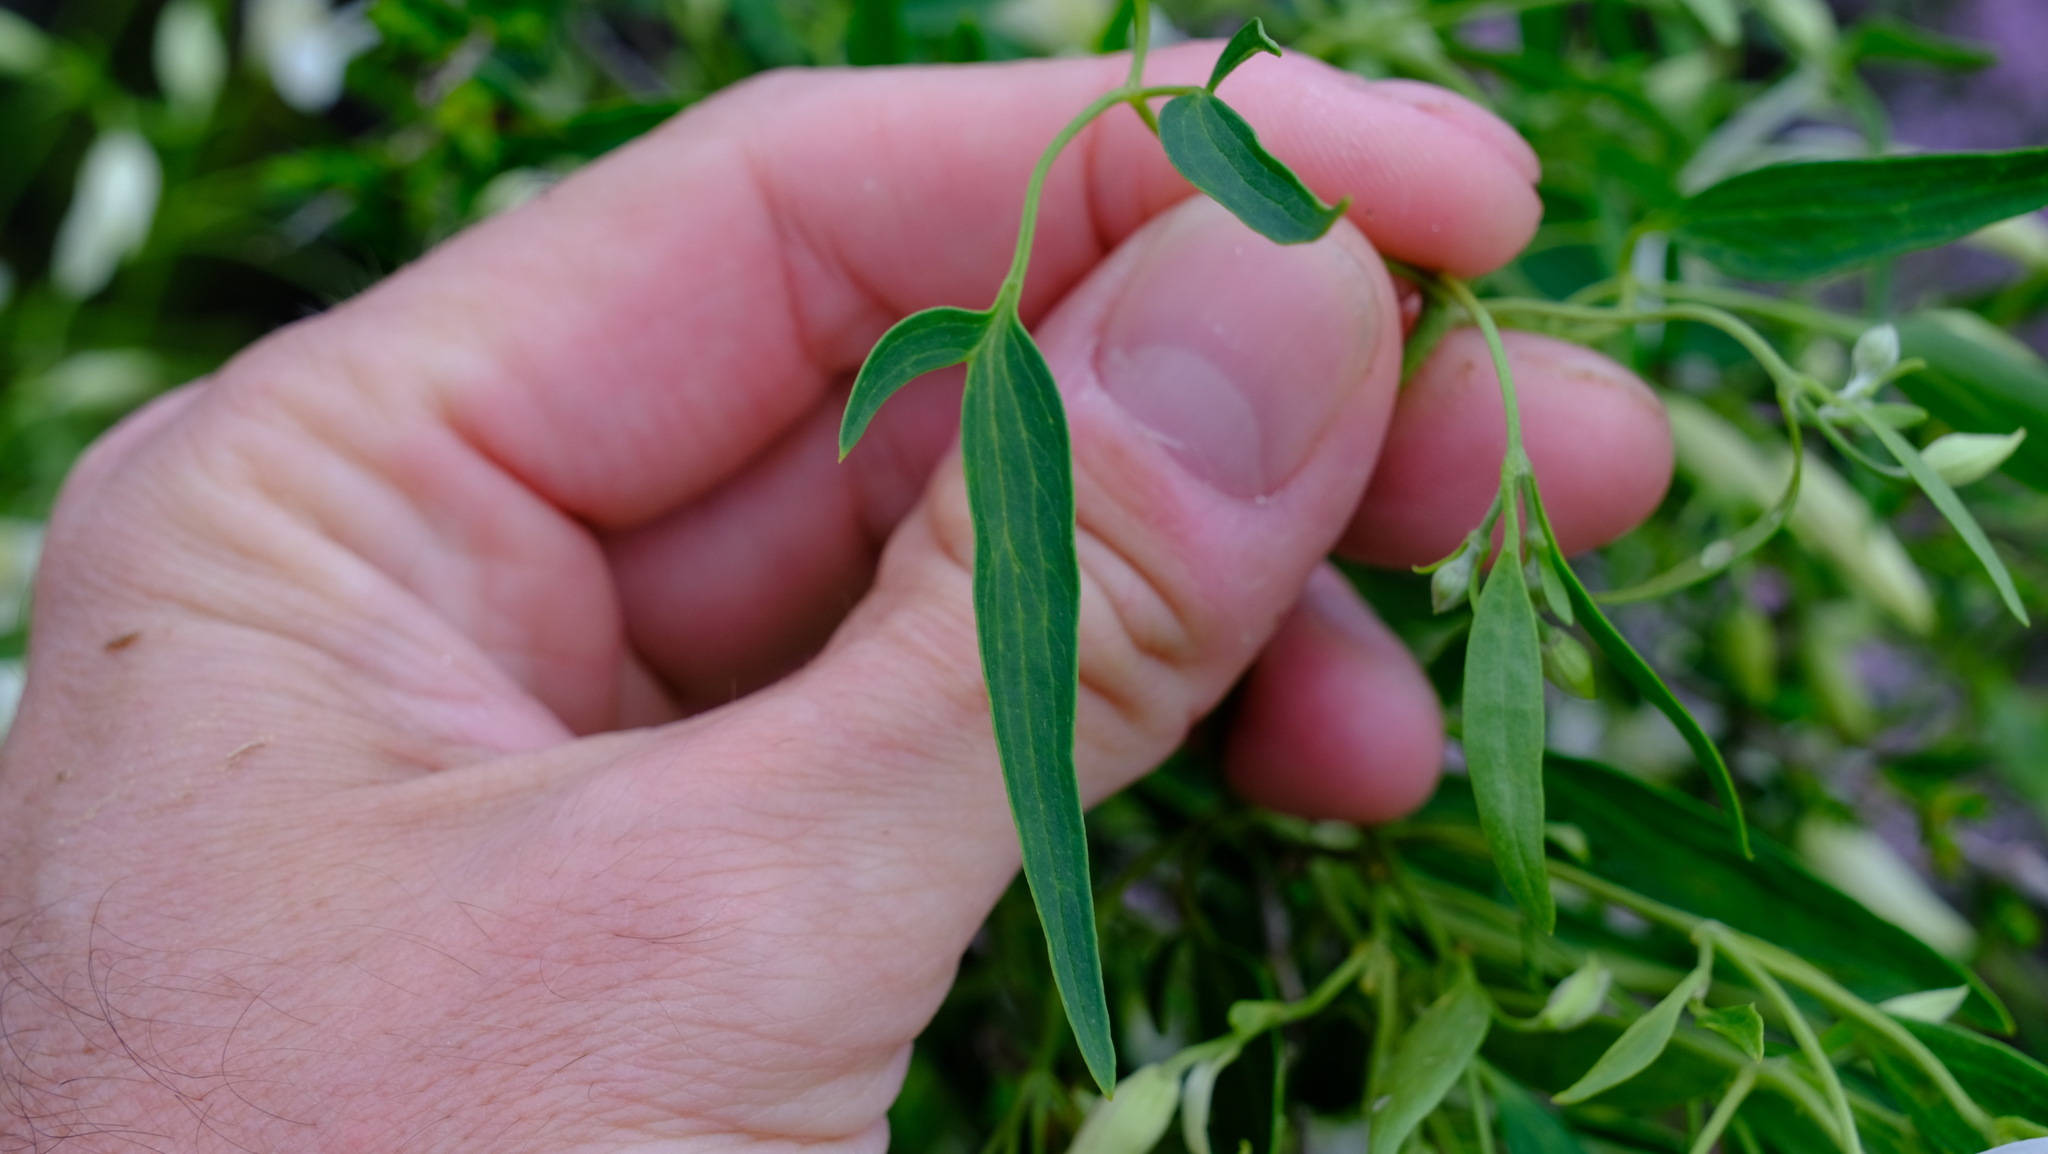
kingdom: Plantae
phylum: Tracheophyta
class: Magnoliopsida
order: Ranunculales
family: Ranunculaceae
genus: Clematis
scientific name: Clematis linearifolia
